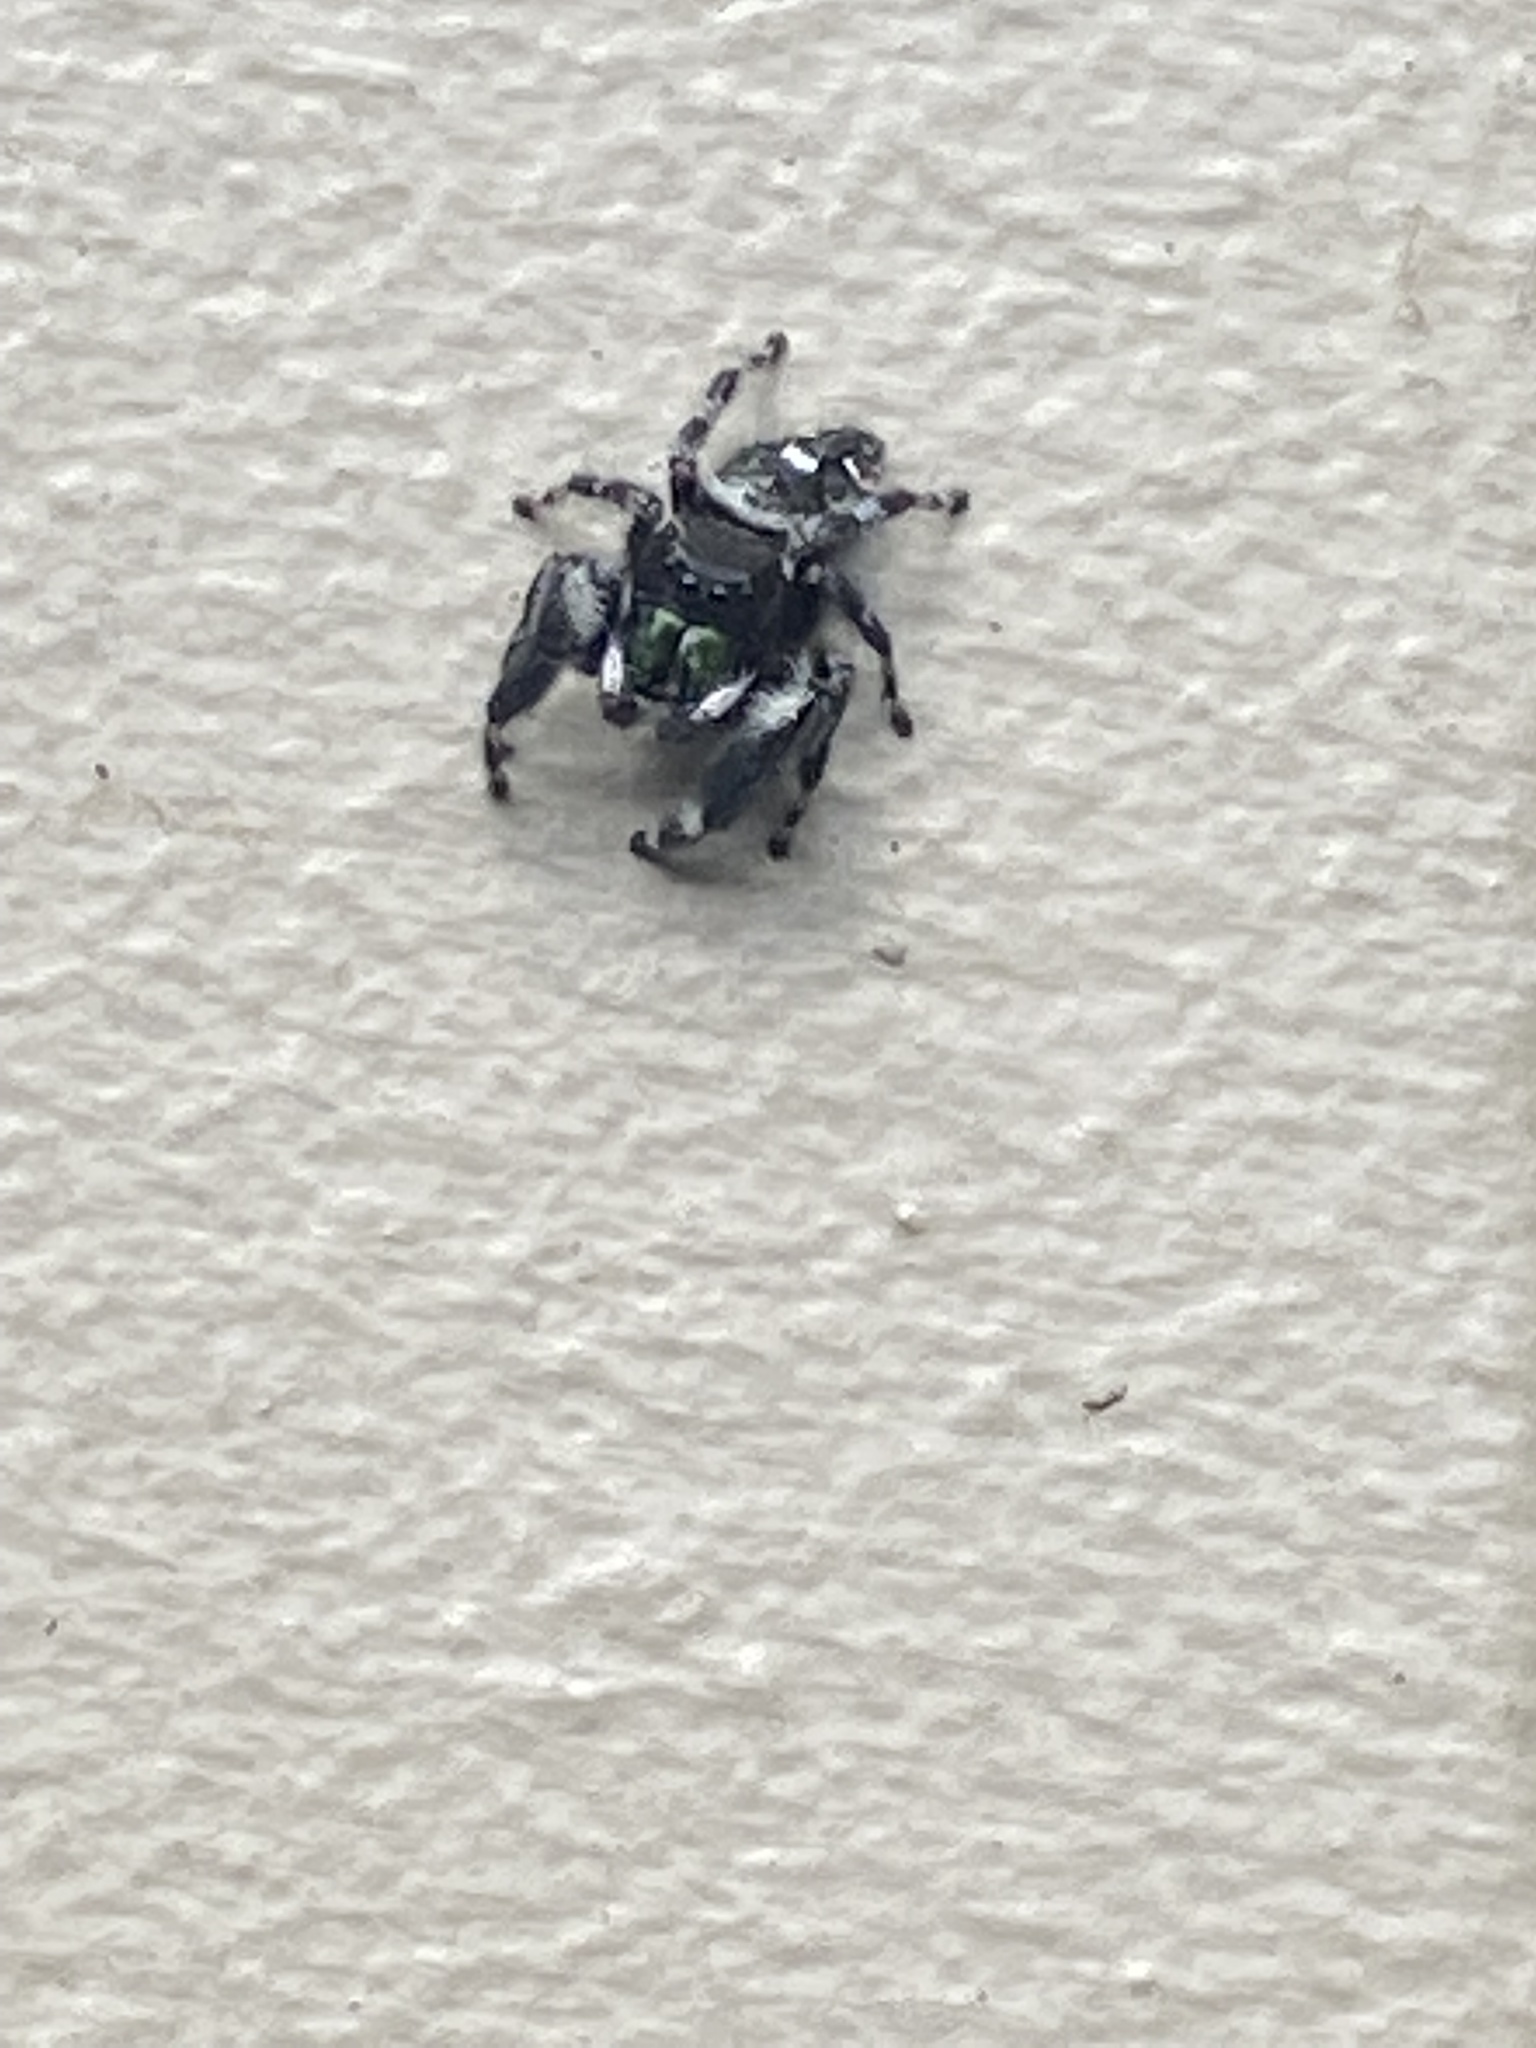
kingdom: Animalia
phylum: Arthropoda
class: Arachnida
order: Araneae
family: Salticidae
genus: Phidippus
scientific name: Phidippus audax
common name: Bold jumper
